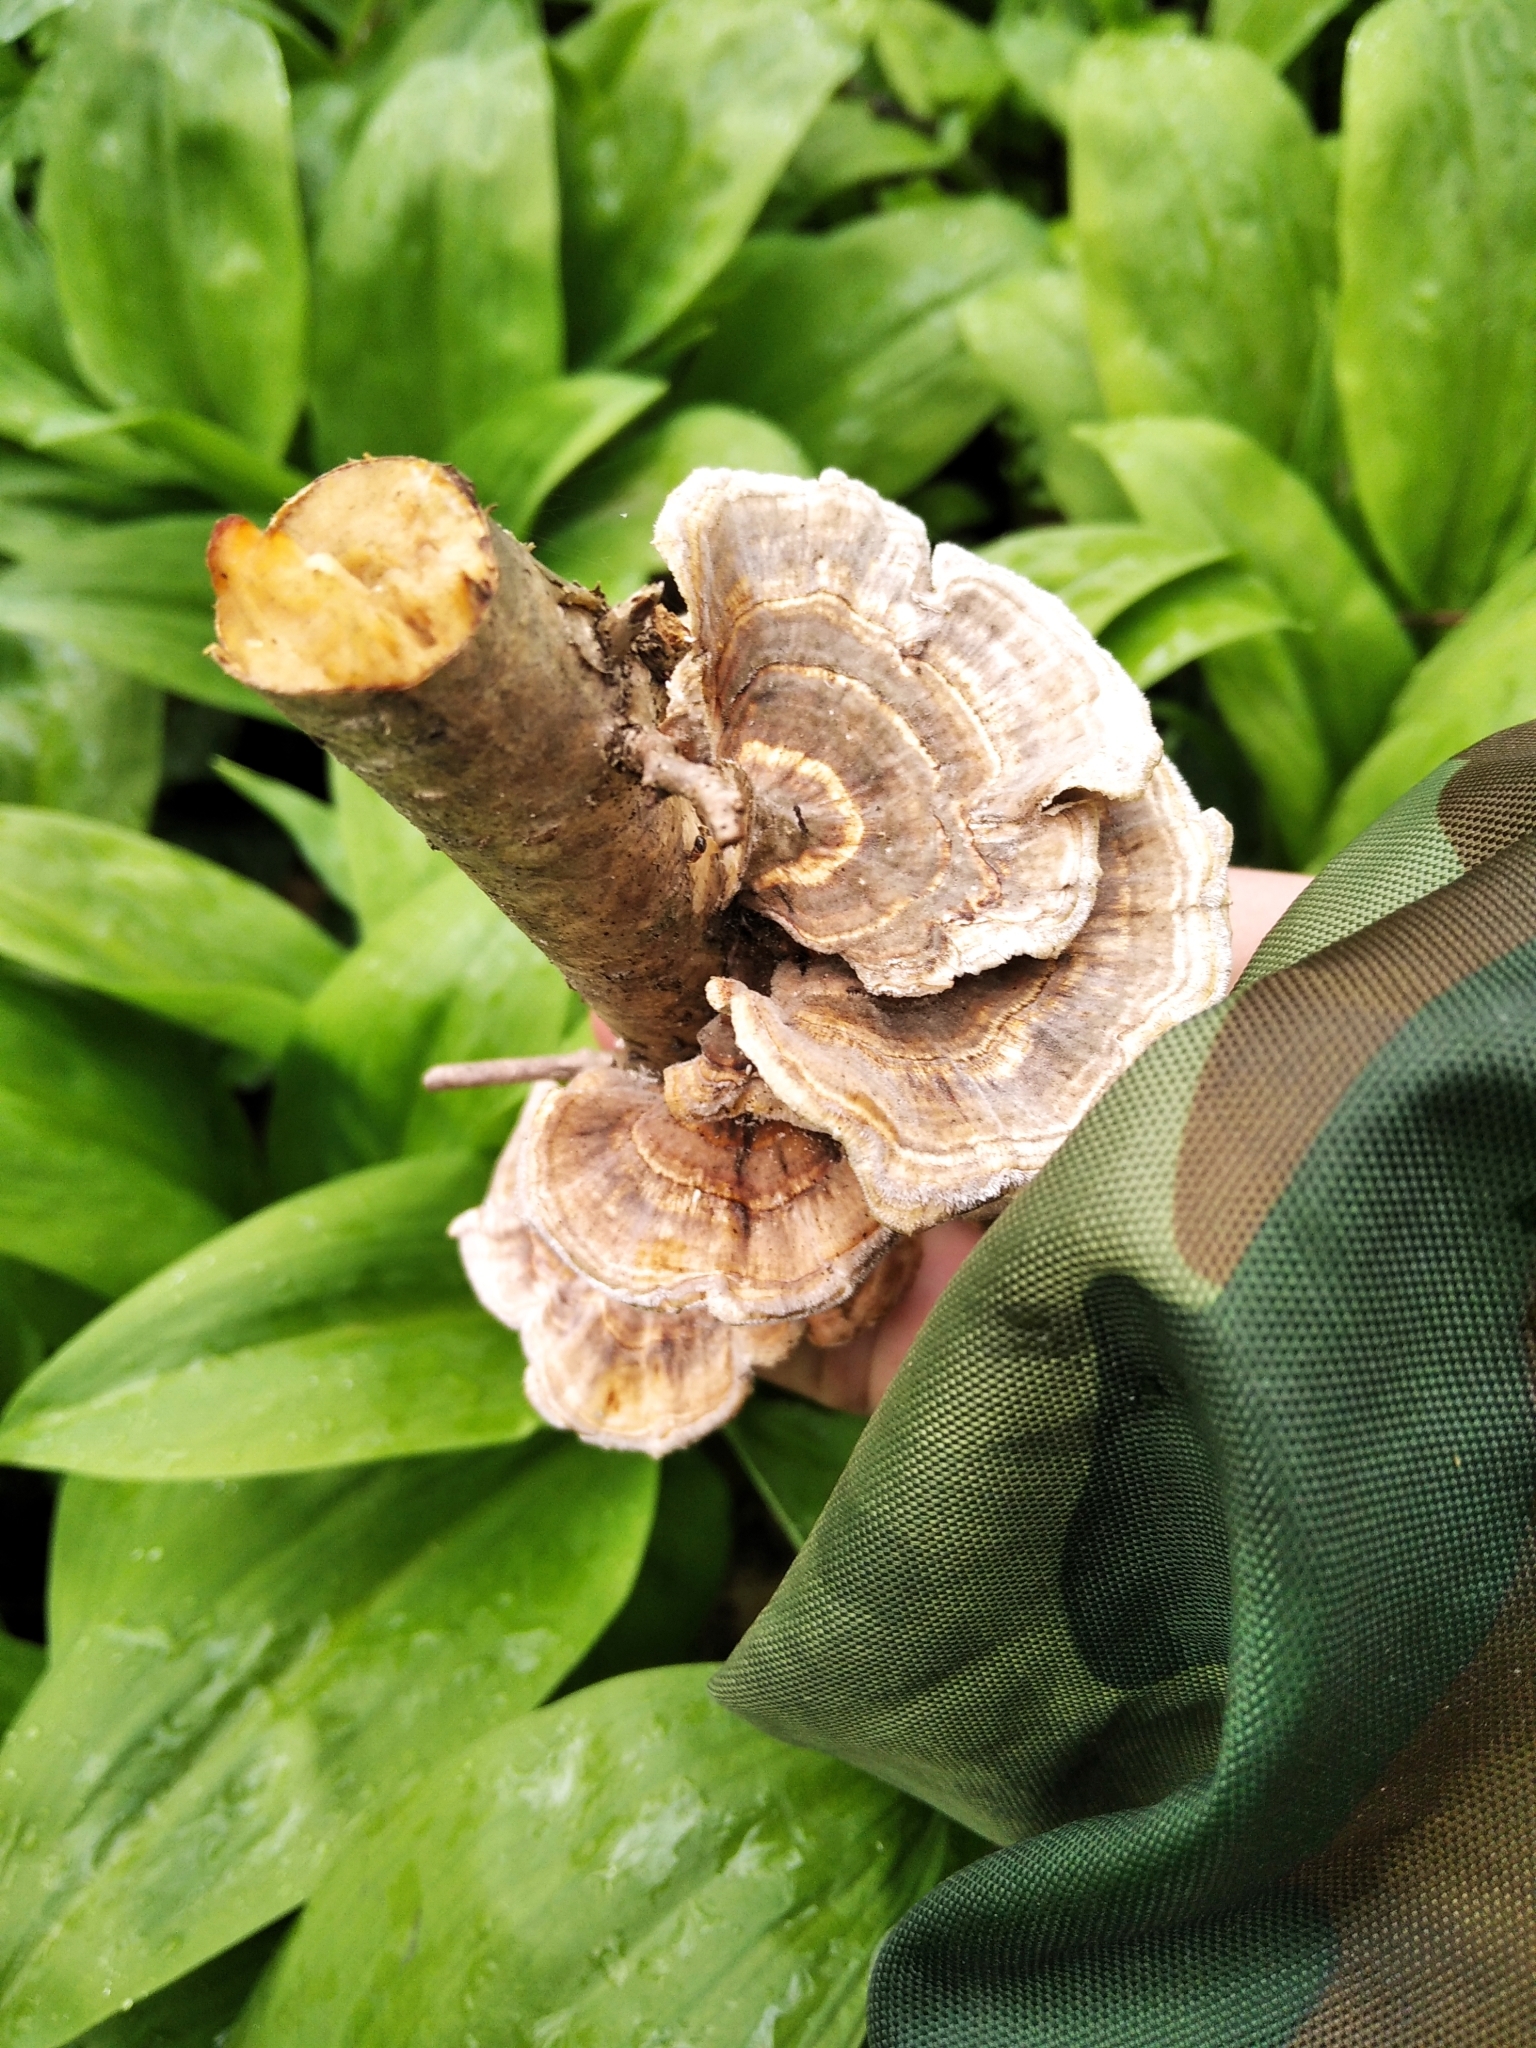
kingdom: Fungi
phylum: Basidiomycota
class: Agaricomycetes
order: Polyporales
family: Polyporaceae
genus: Trametes
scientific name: Trametes ochracea
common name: Ochre bracket
